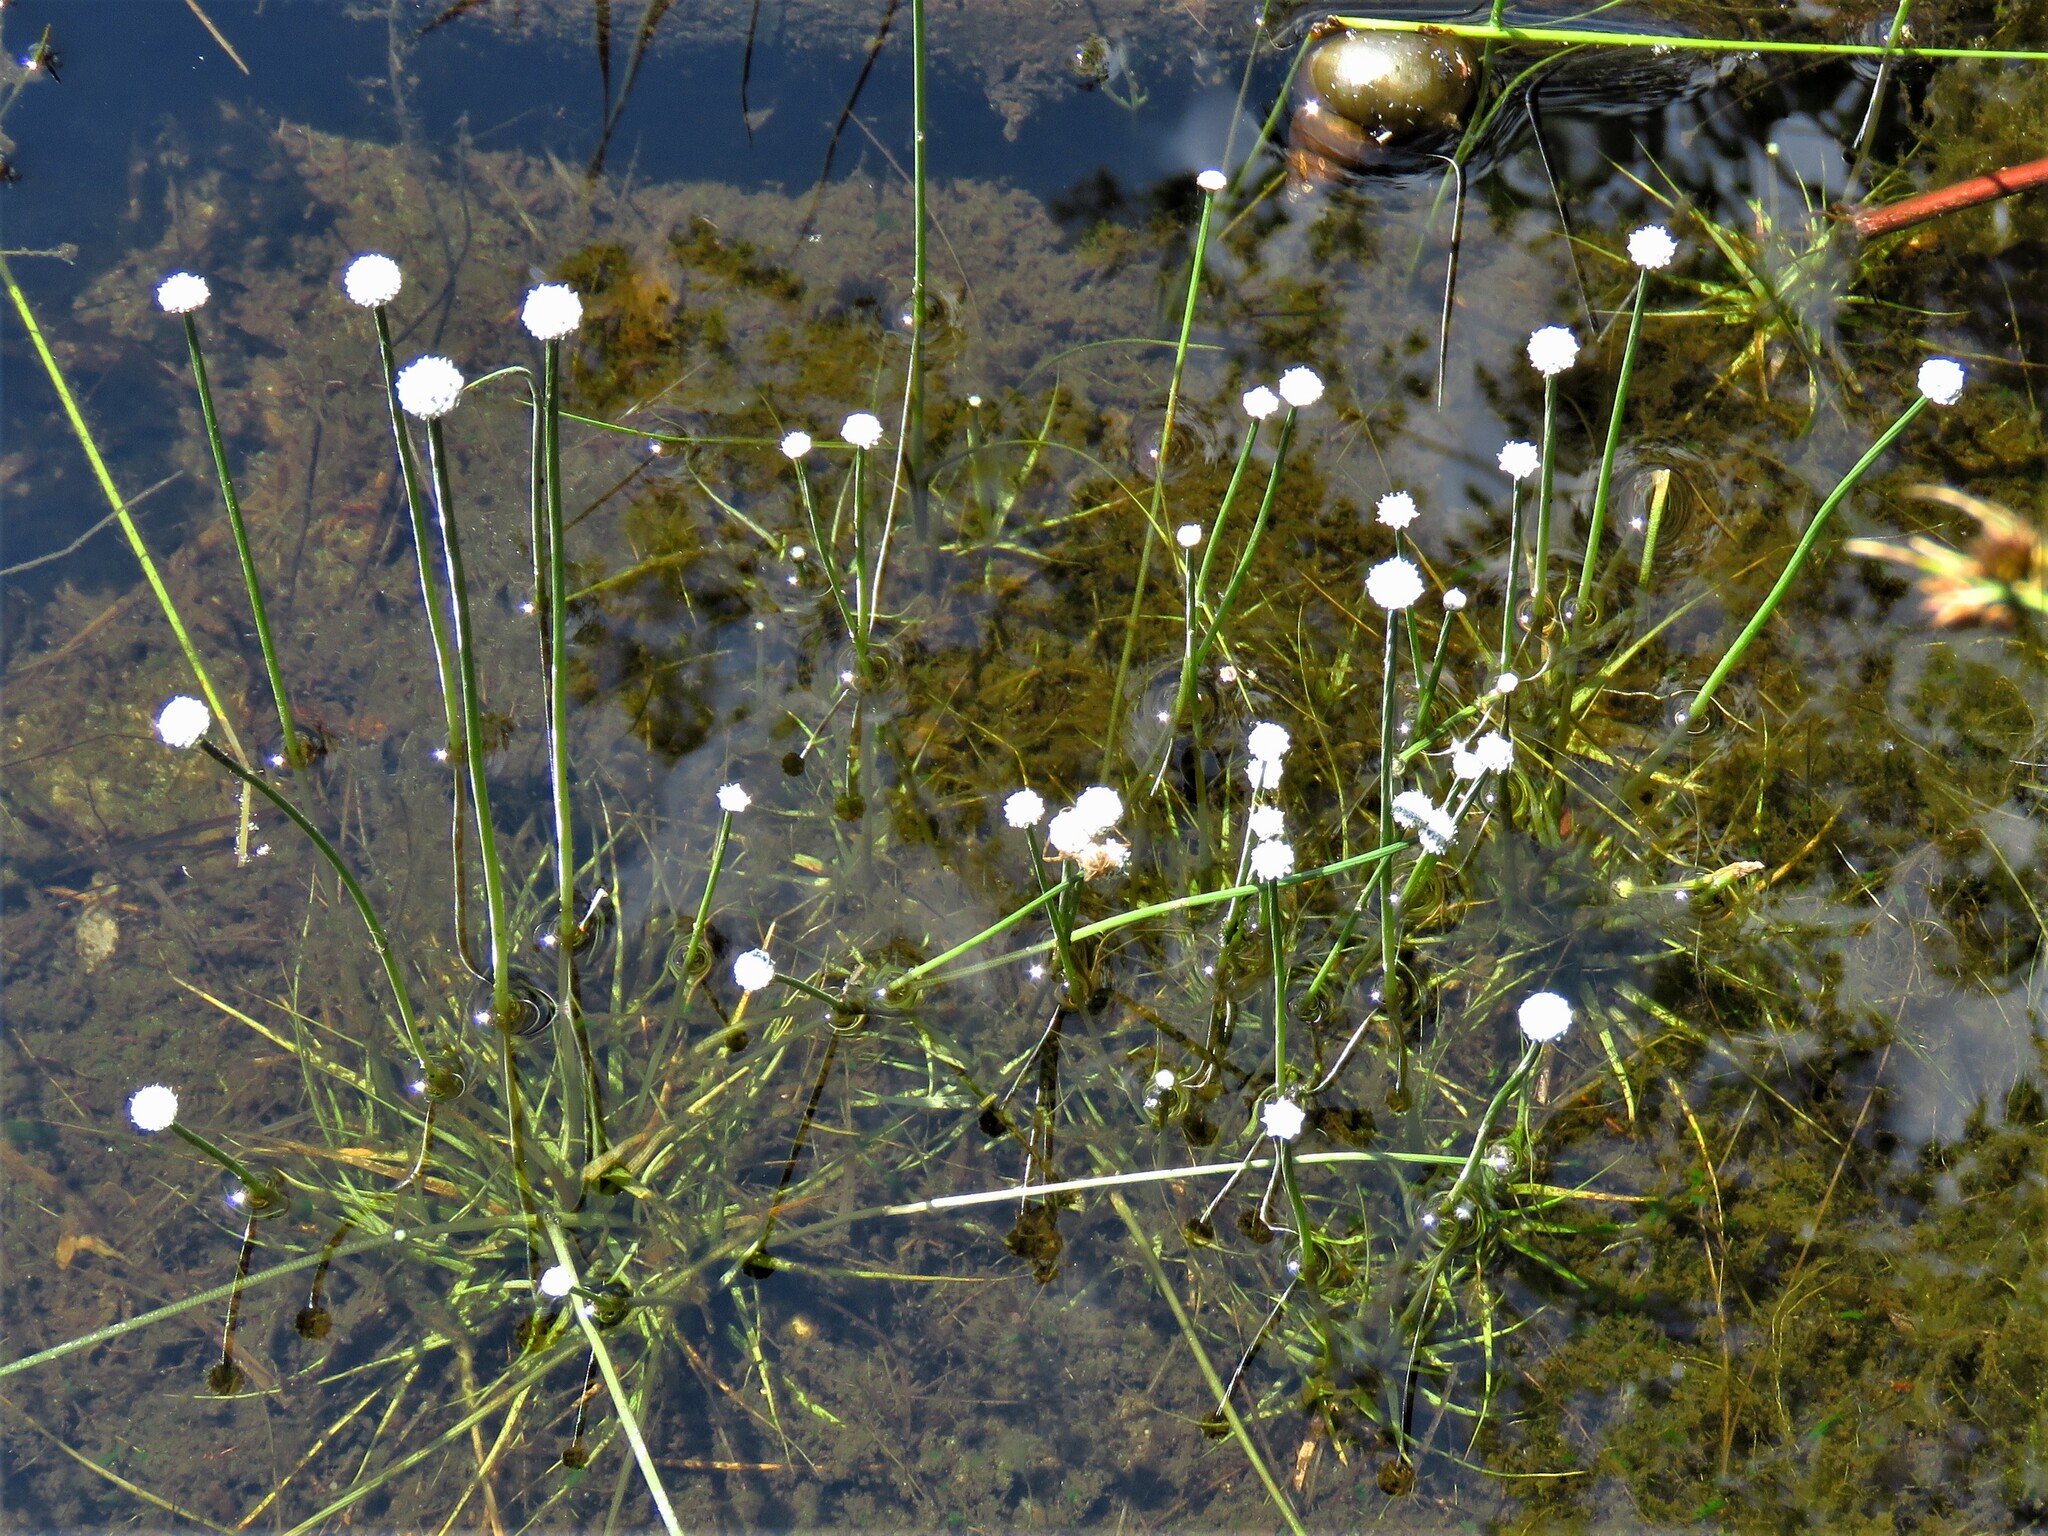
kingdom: Plantae
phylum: Tracheophyta
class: Liliopsida
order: Poales
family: Eriocaulaceae
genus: Eriocaulon
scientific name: Eriocaulon aquaticum
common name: Pipewort
